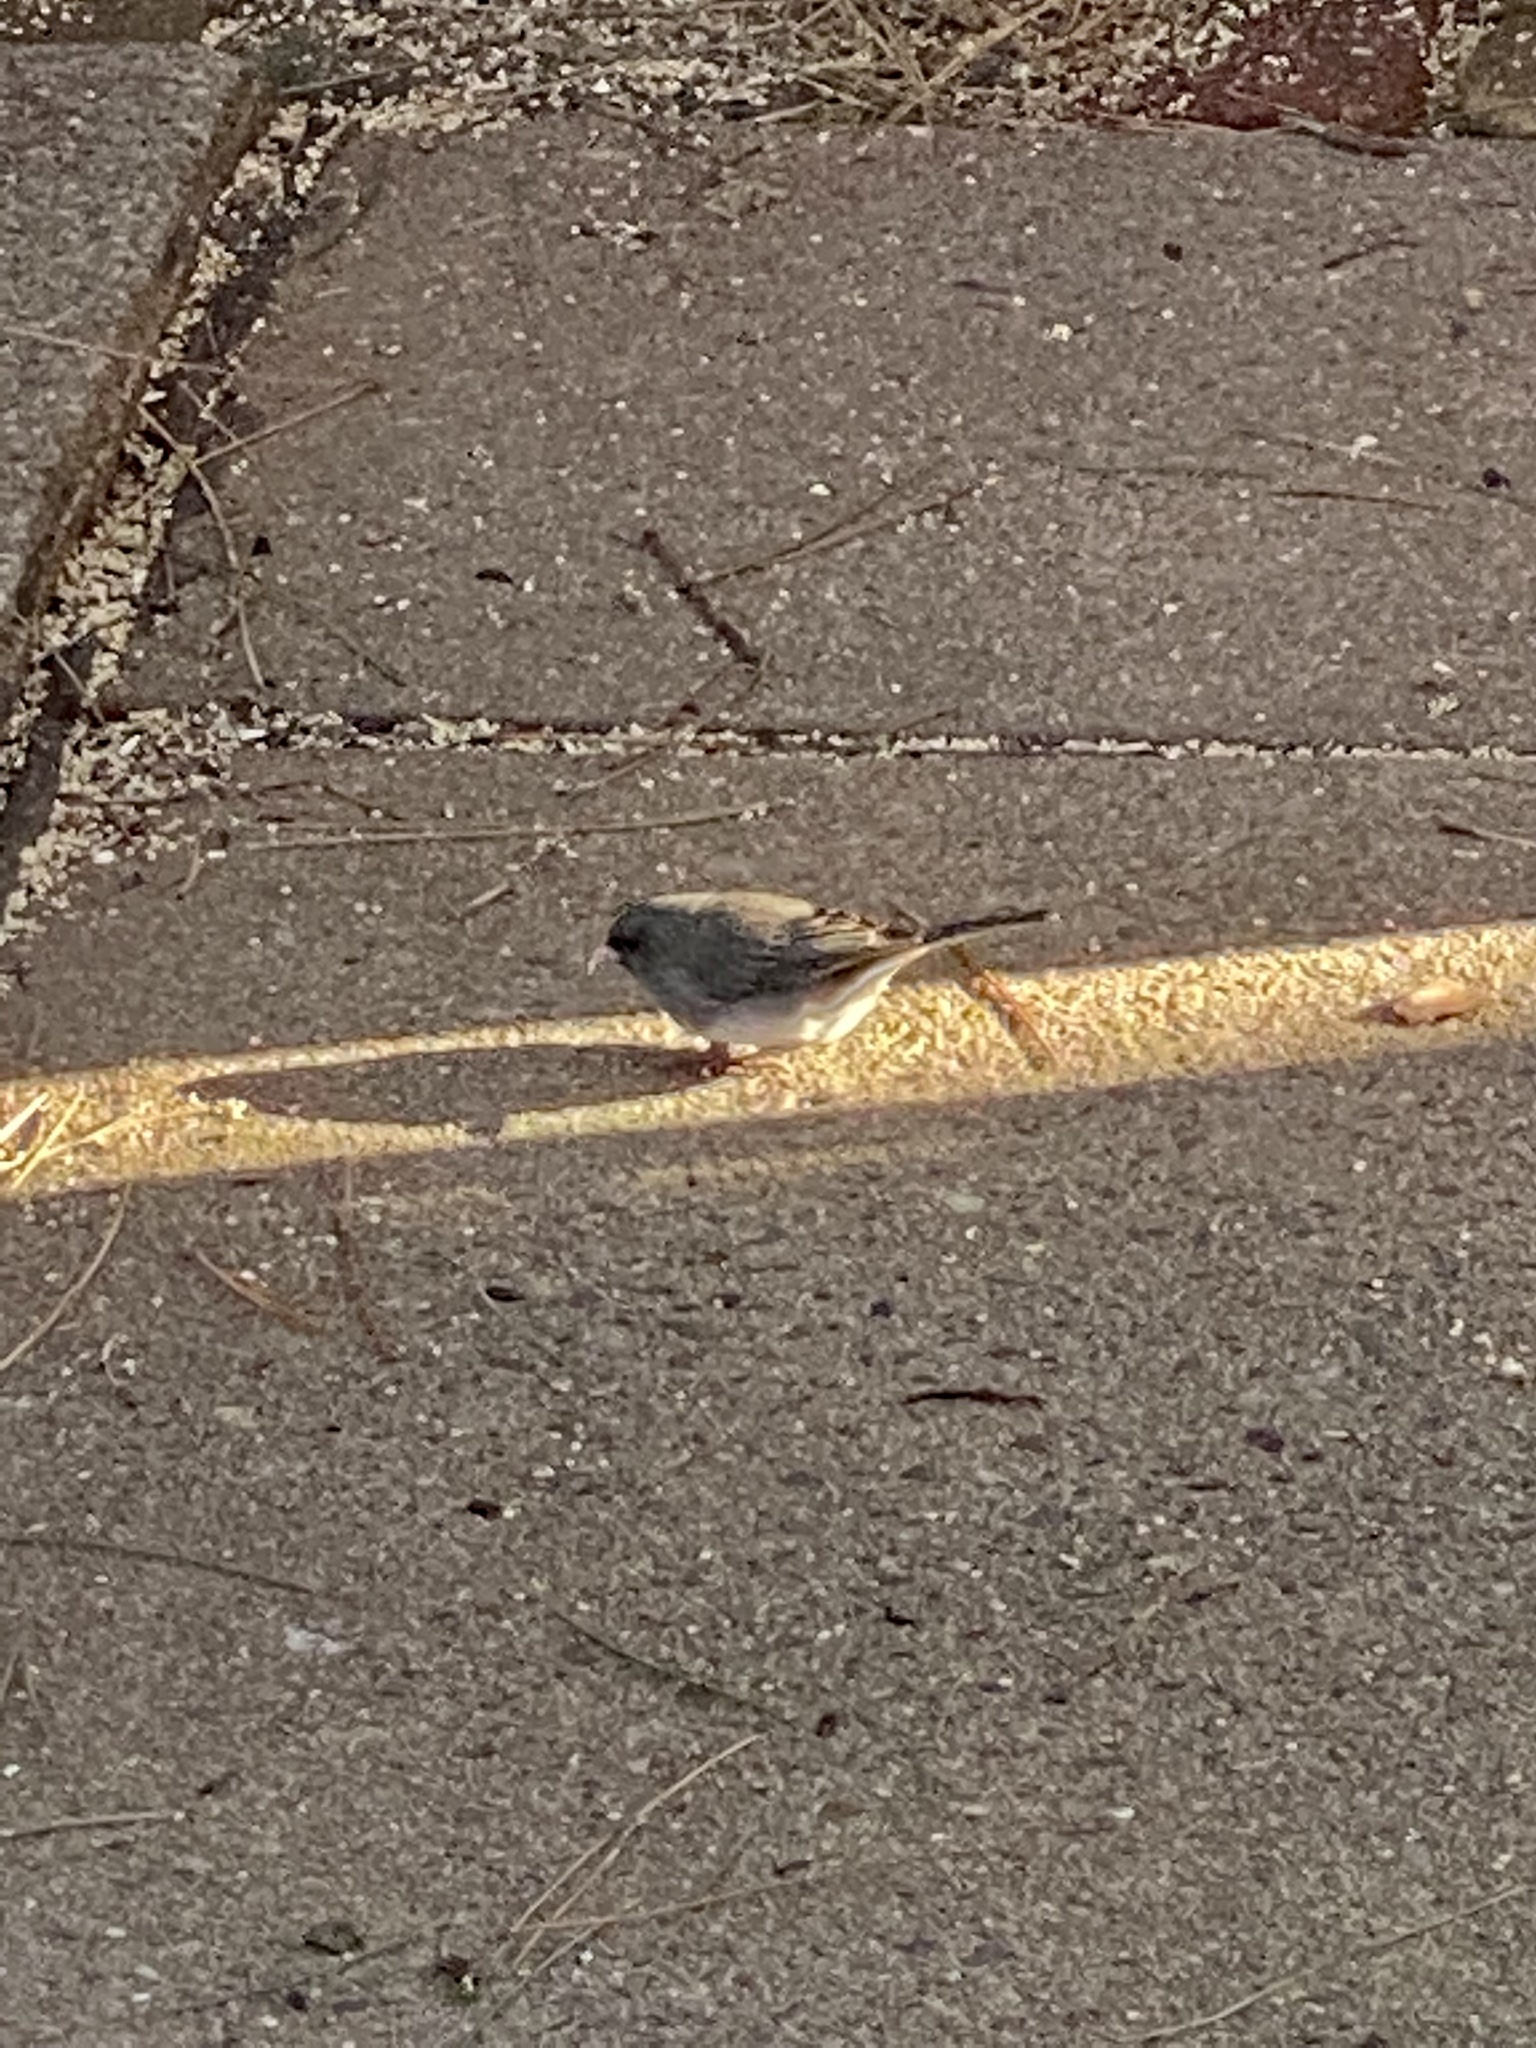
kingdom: Animalia
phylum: Chordata
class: Aves
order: Passeriformes
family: Passerellidae
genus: Junco
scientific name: Junco hyemalis
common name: Dark-eyed junco
